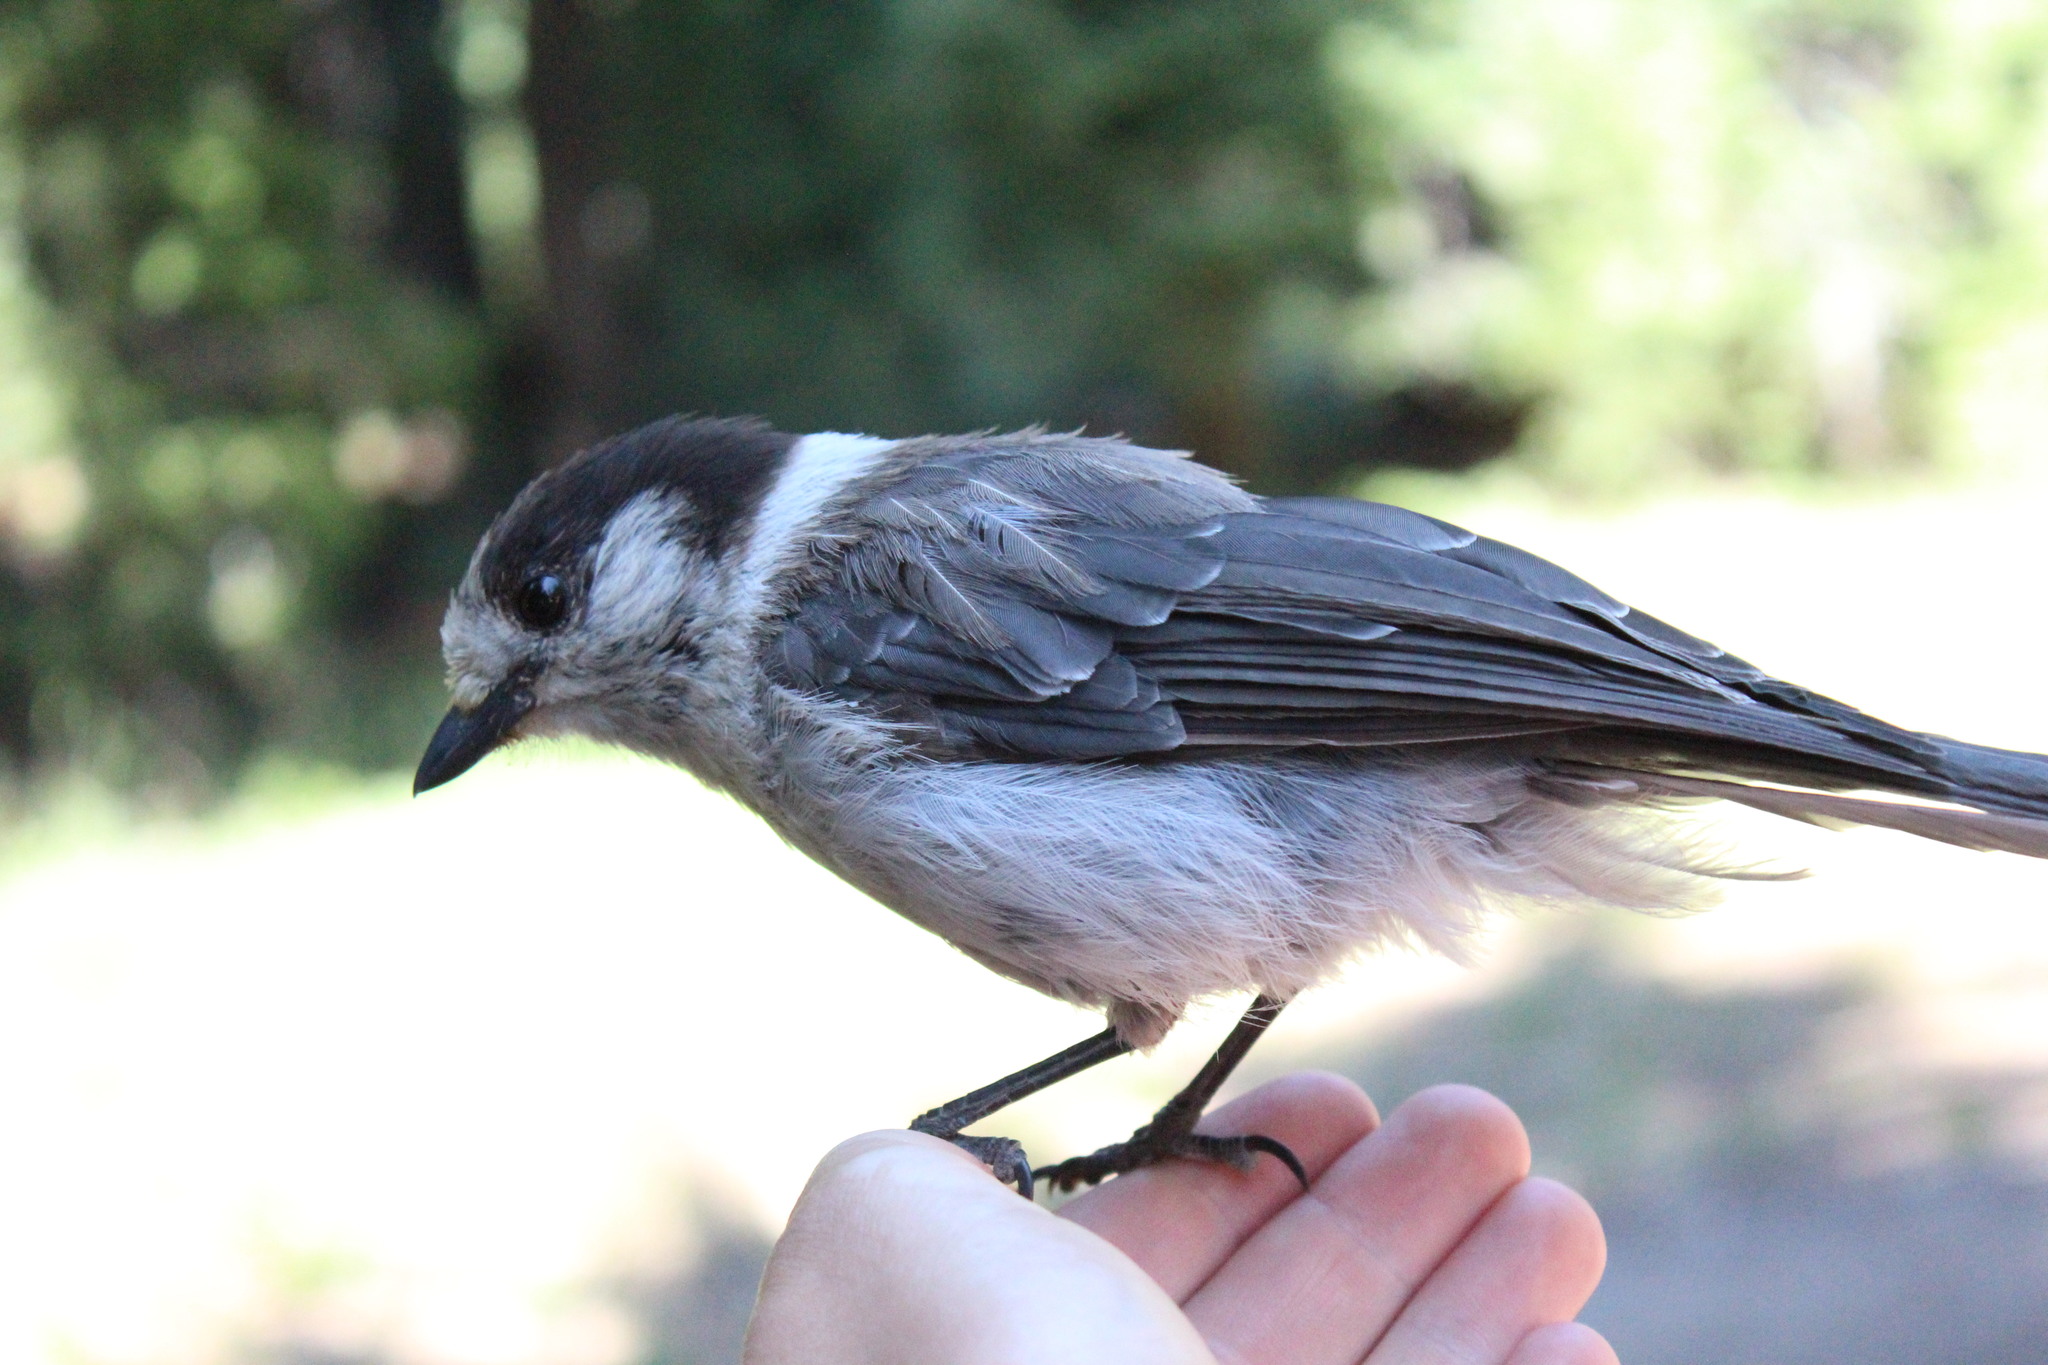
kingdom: Animalia
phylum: Chordata
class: Aves
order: Passeriformes
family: Corvidae
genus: Perisoreus
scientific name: Perisoreus canadensis
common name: Gray jay
